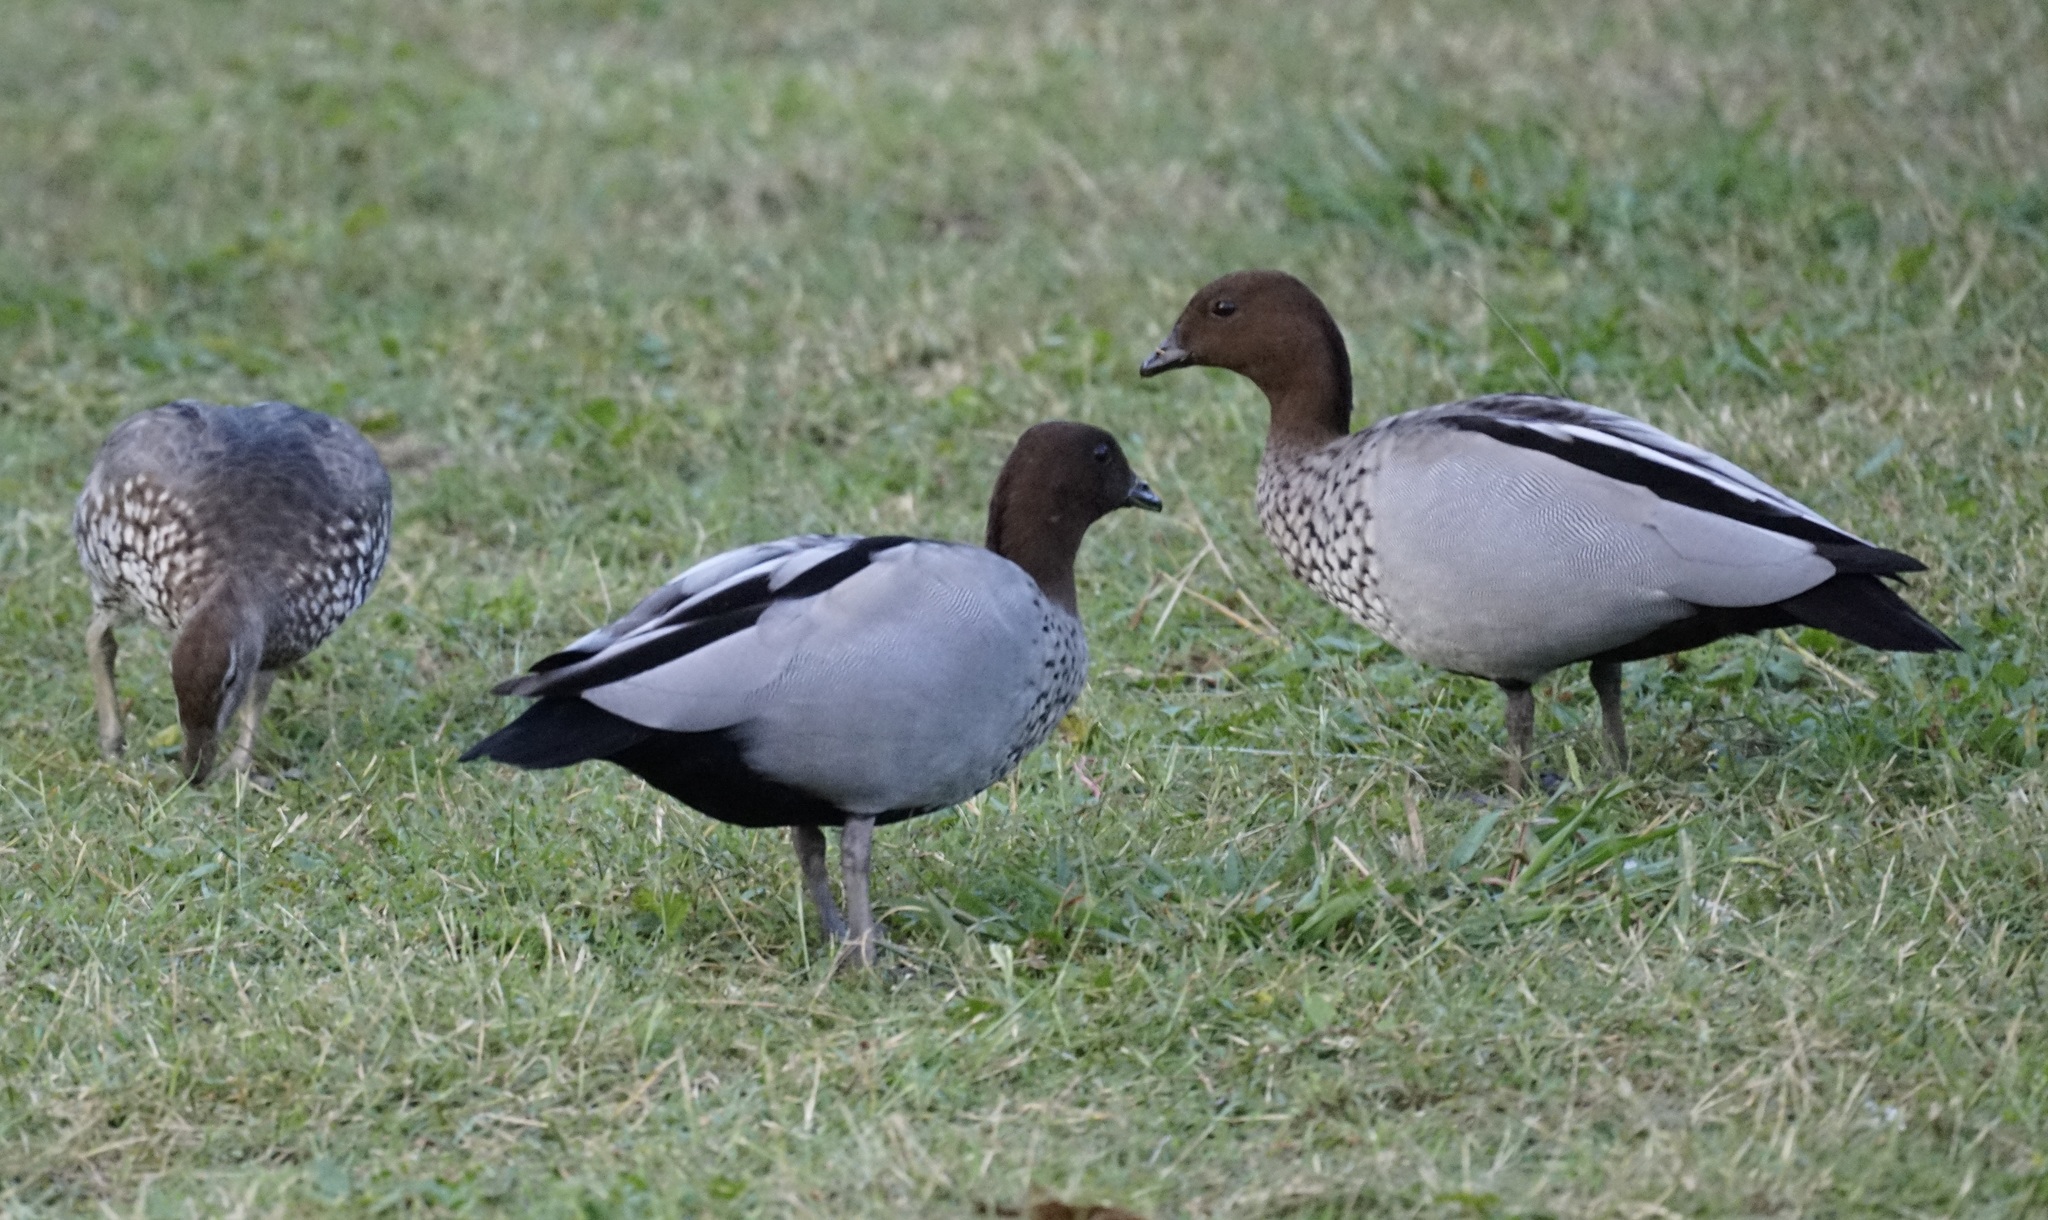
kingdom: Animalia
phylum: Chordata
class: Aves
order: Anseriformes
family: Anatidae
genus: Chenonetta
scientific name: Chenonetta jubata
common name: Maned duck
